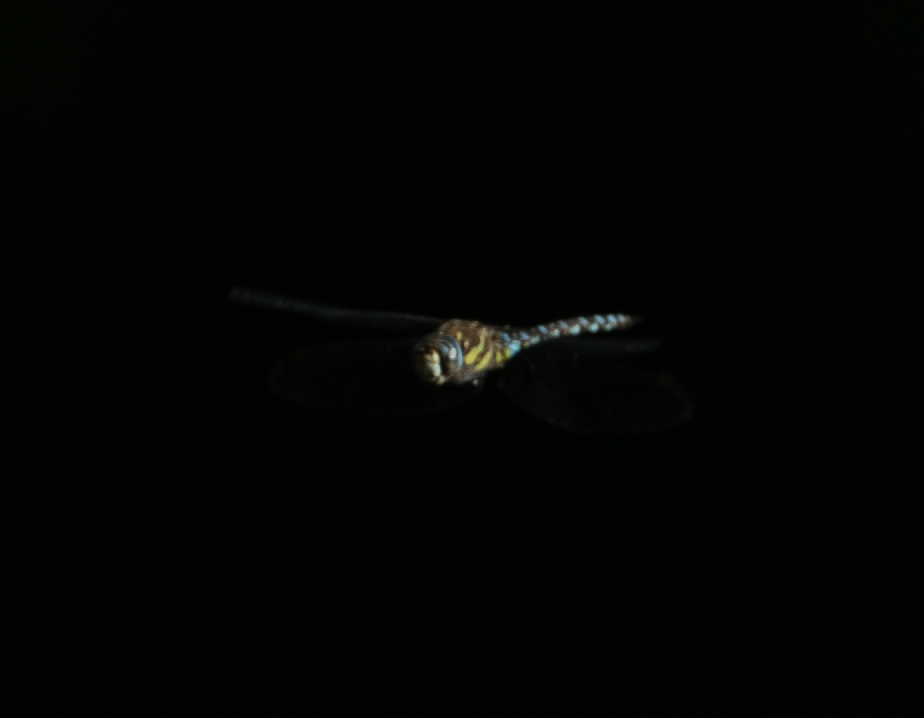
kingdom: Animalia
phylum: Arthropoda
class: Insecta
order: Odonata
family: Aeshnidae
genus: Aeshna
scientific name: Aeshna mixta
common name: Migrant hawker
